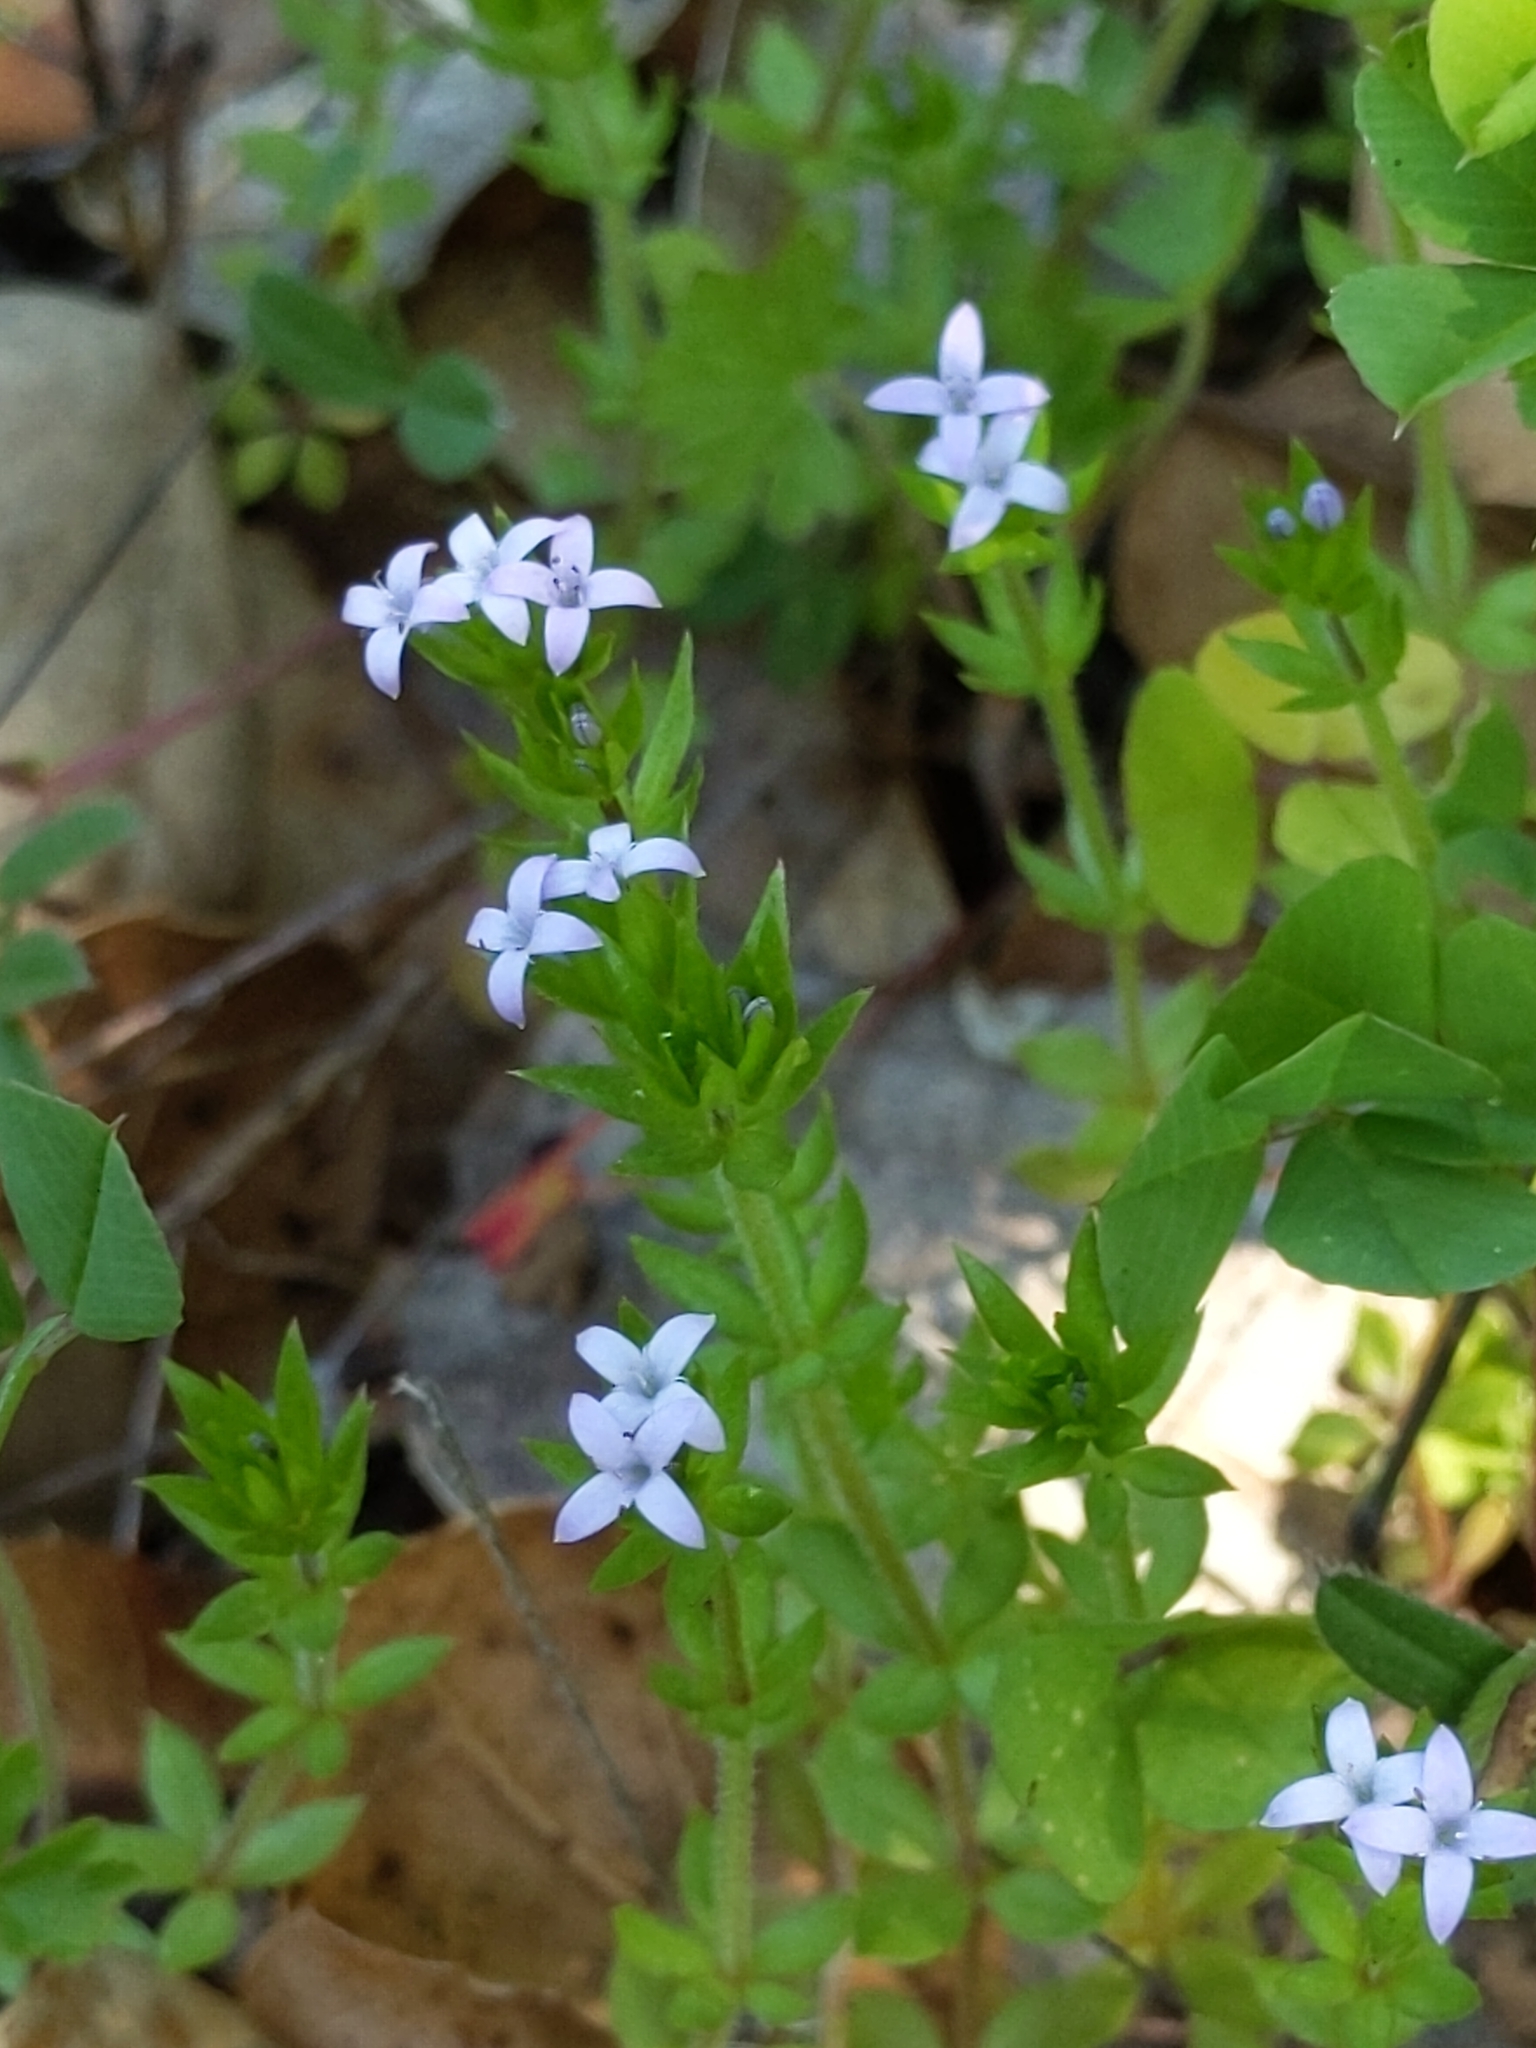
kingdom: Plantae
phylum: Tracheophyta
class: Magnoliopsida
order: Gentianales
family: Rubiaceae
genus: Sherardia
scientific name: Sherardia arvensis
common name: Field madder
